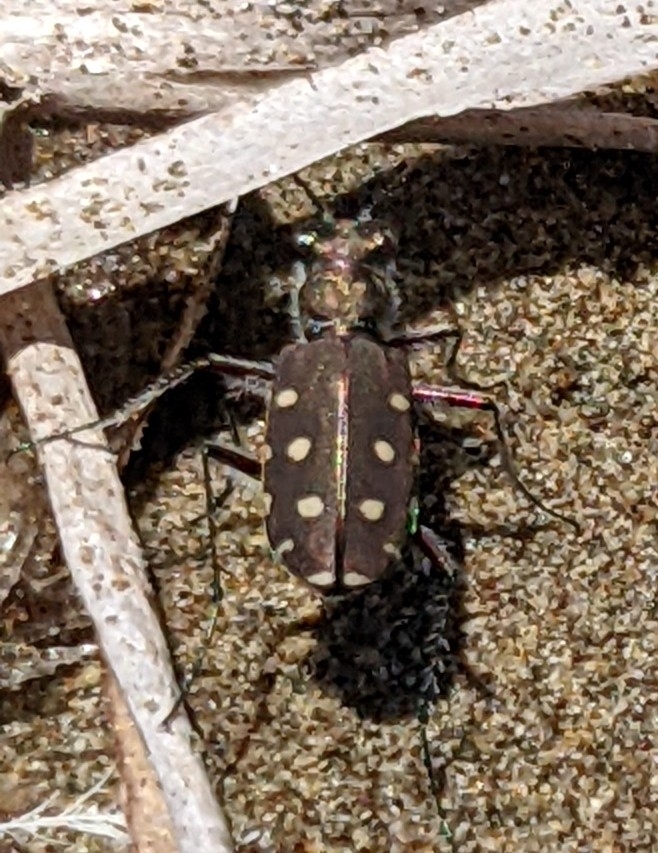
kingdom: Animalia
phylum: Arthropoda
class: Insecta
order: Coleoptera
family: Carabidae
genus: Cicindela
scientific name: Cicindela littoralis
